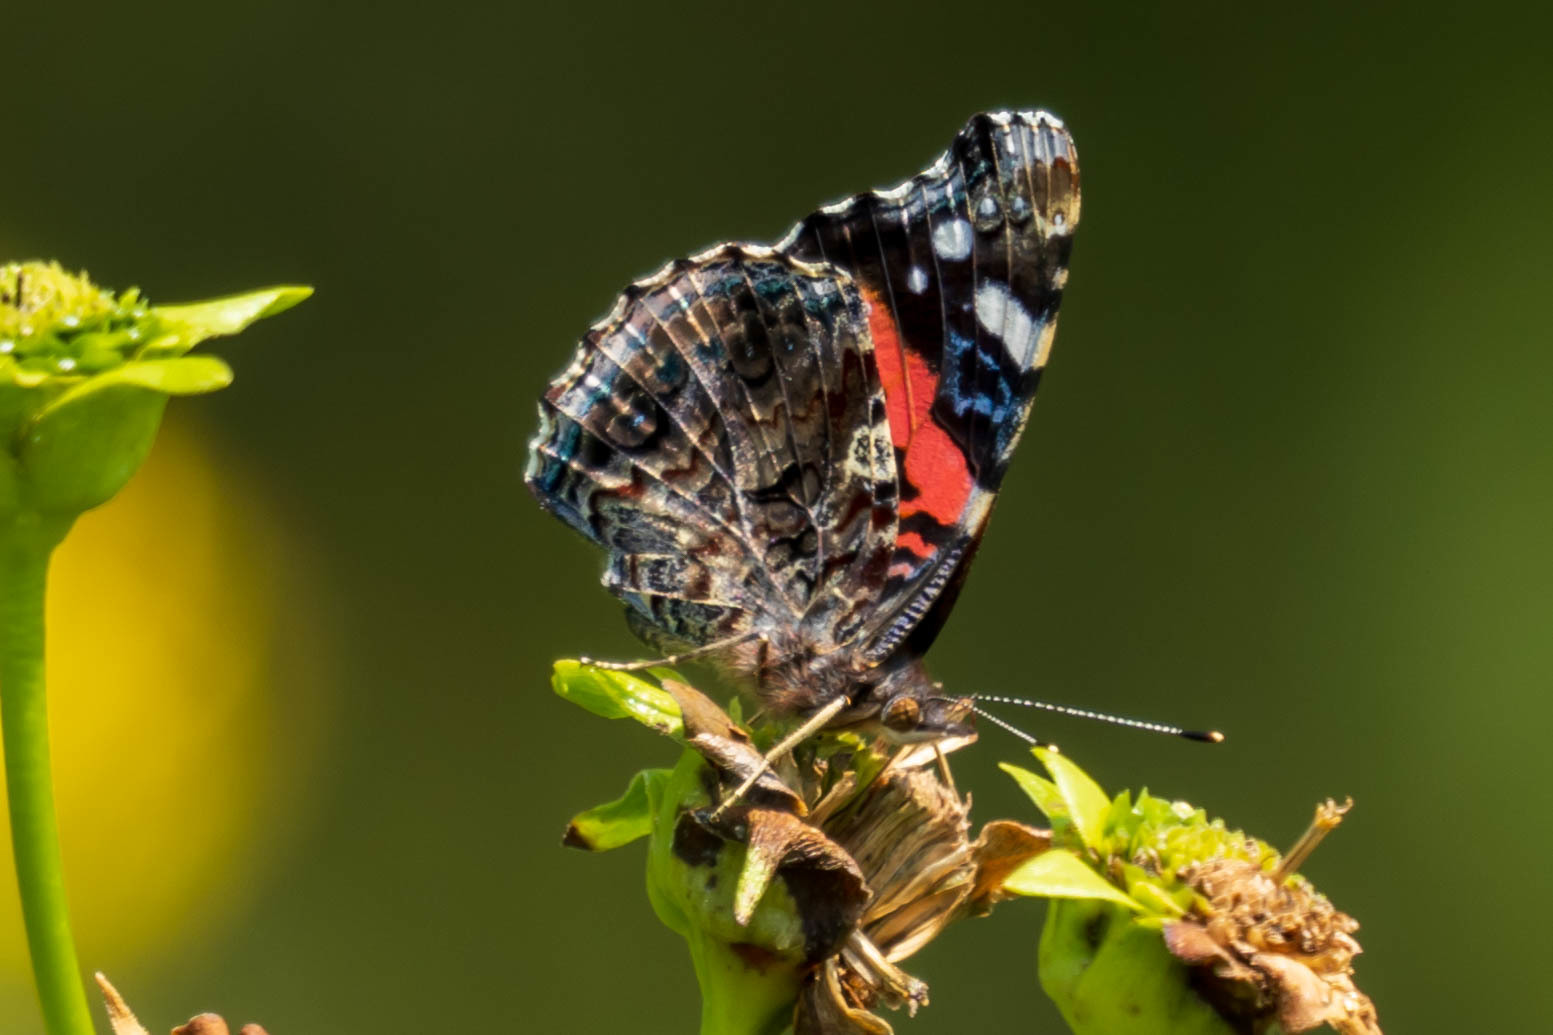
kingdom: Animalia
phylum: Arthropoda
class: Insecta
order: Lepidoptera
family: Nymphalidae
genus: Vanessa
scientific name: Vanessa atalanta
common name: Red admiral
